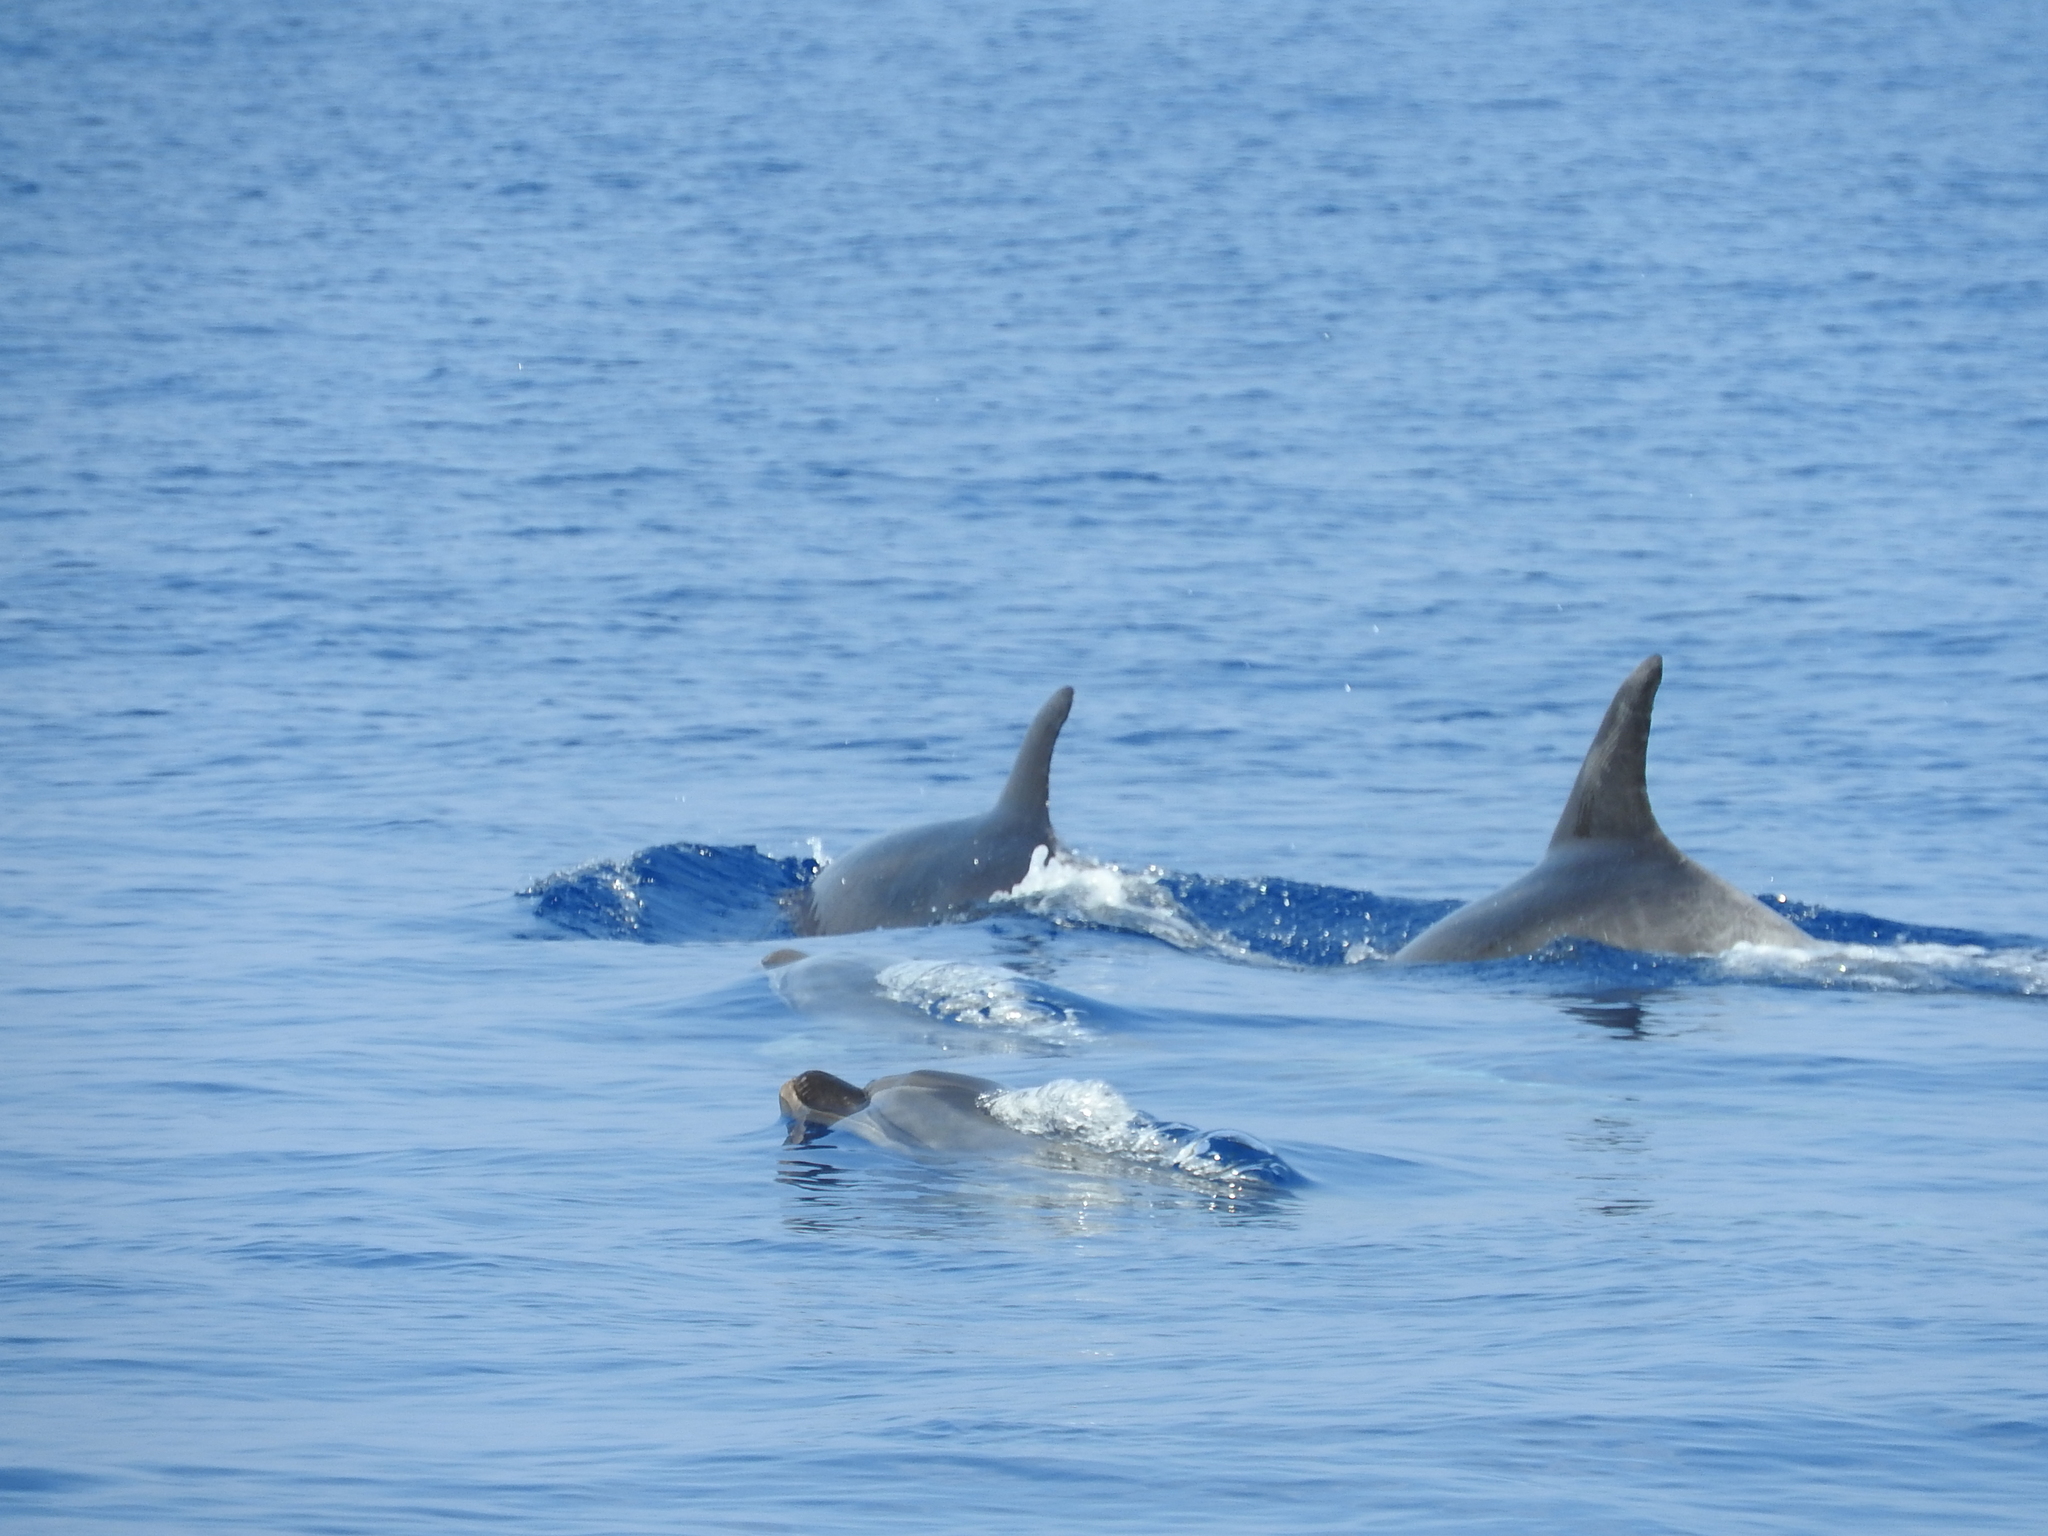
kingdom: Animalia
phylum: Chordata
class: Mammalia
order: Cetacea
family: Delphinidae
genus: Tursiops
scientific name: Tursiops truncatus
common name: Bottlenose dolphin
